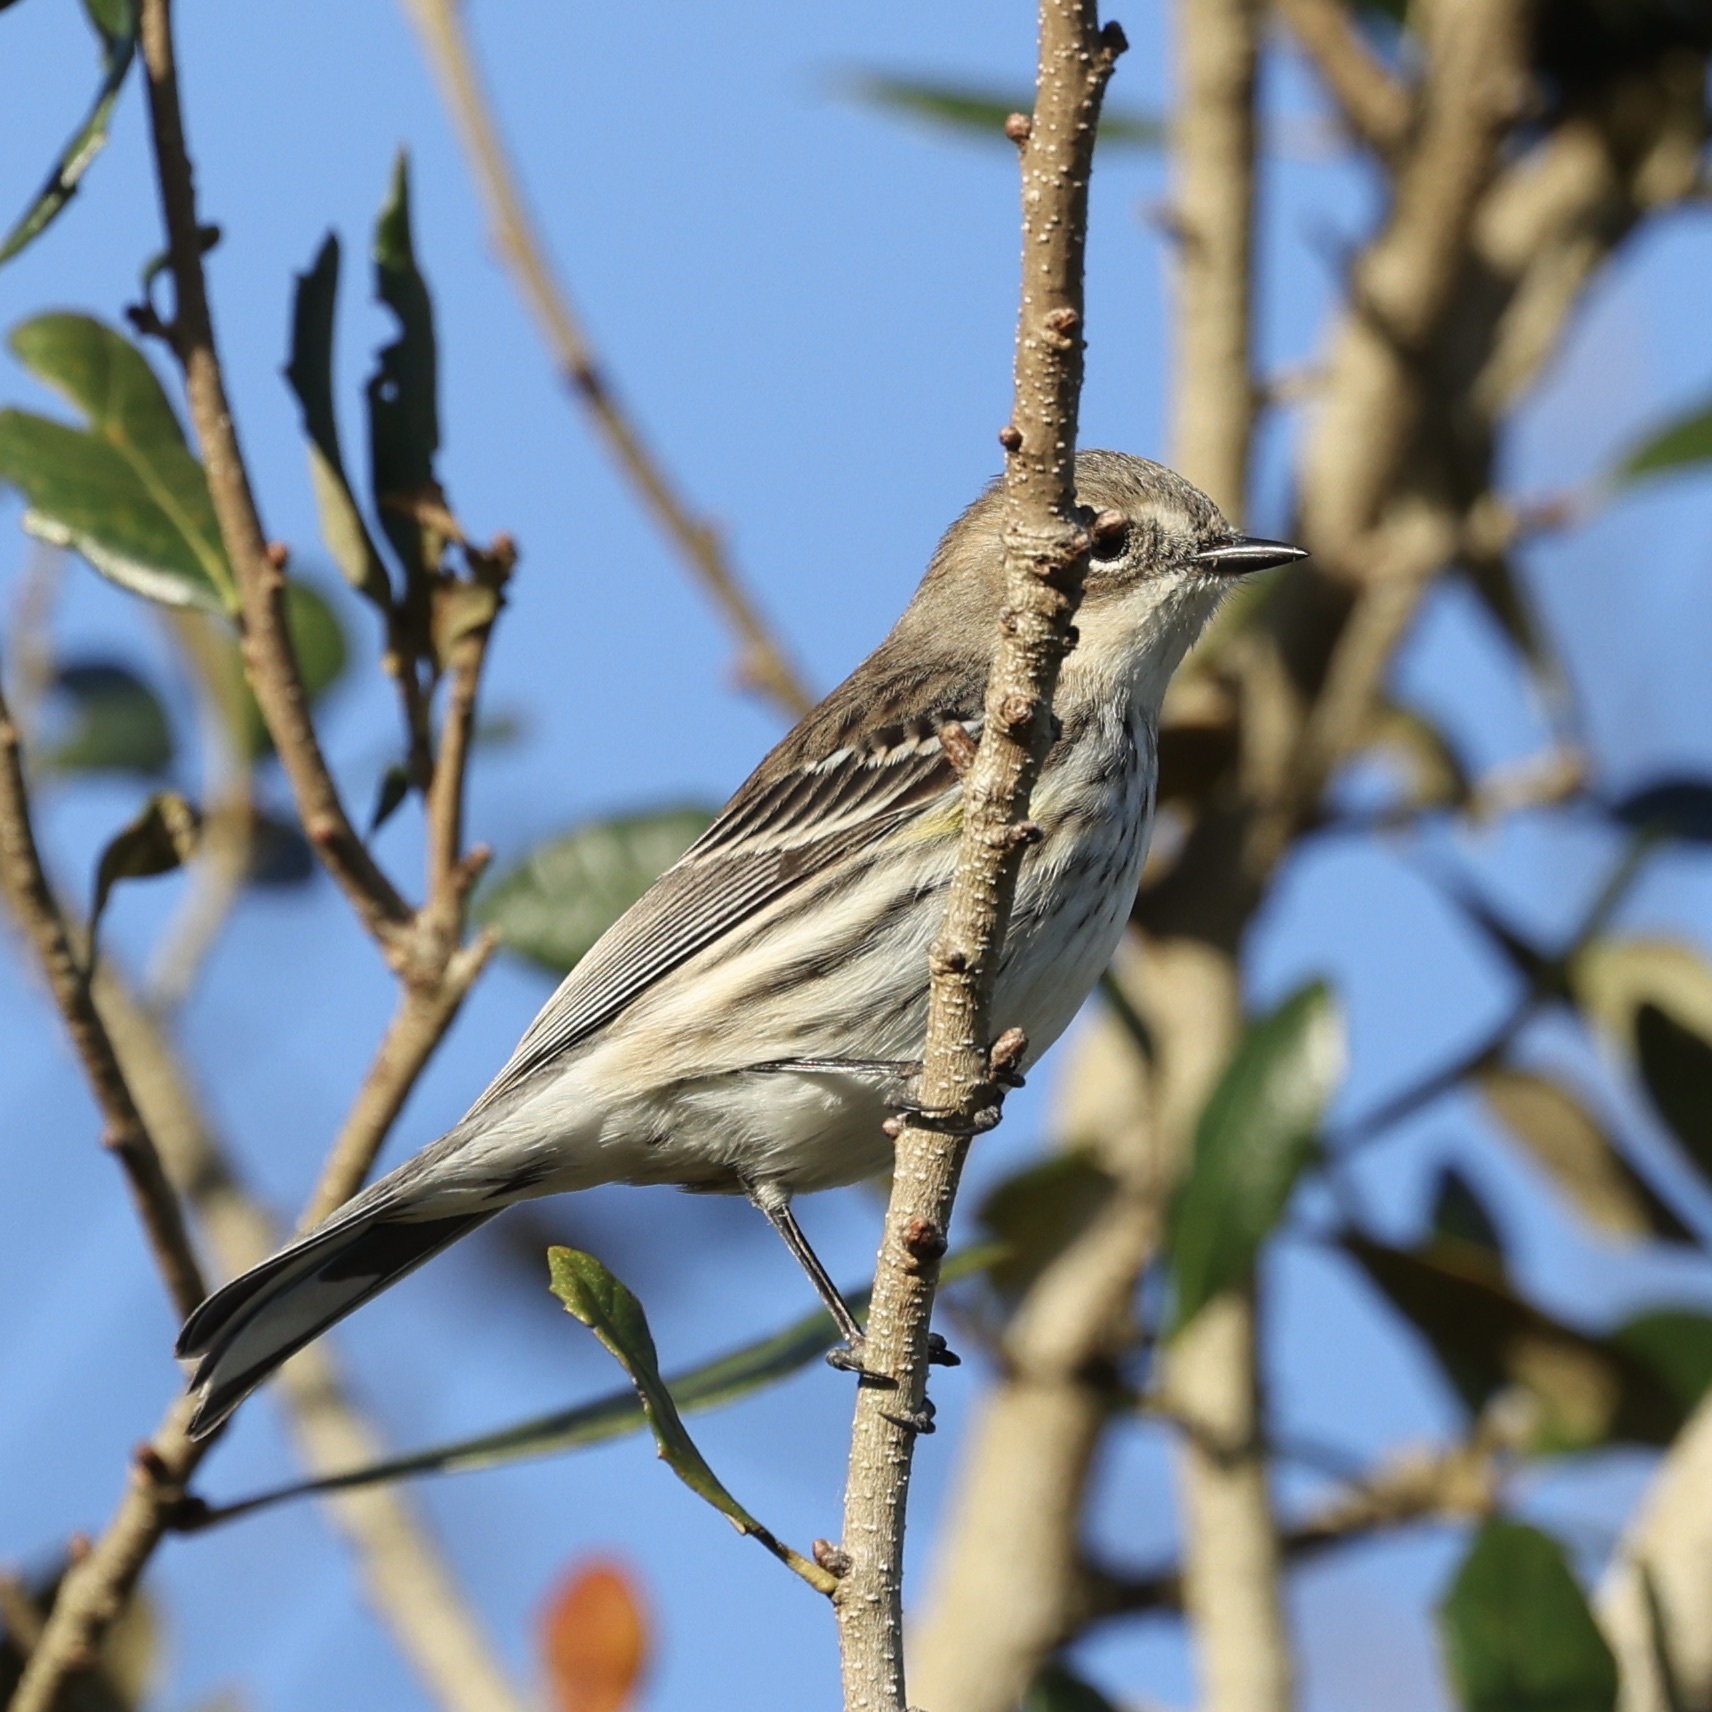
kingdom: Animalia
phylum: Chordata
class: Aves
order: Passeriformes
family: Parulidae
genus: Setophaga
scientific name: Setophaga coronata
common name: Myrtle warbler
